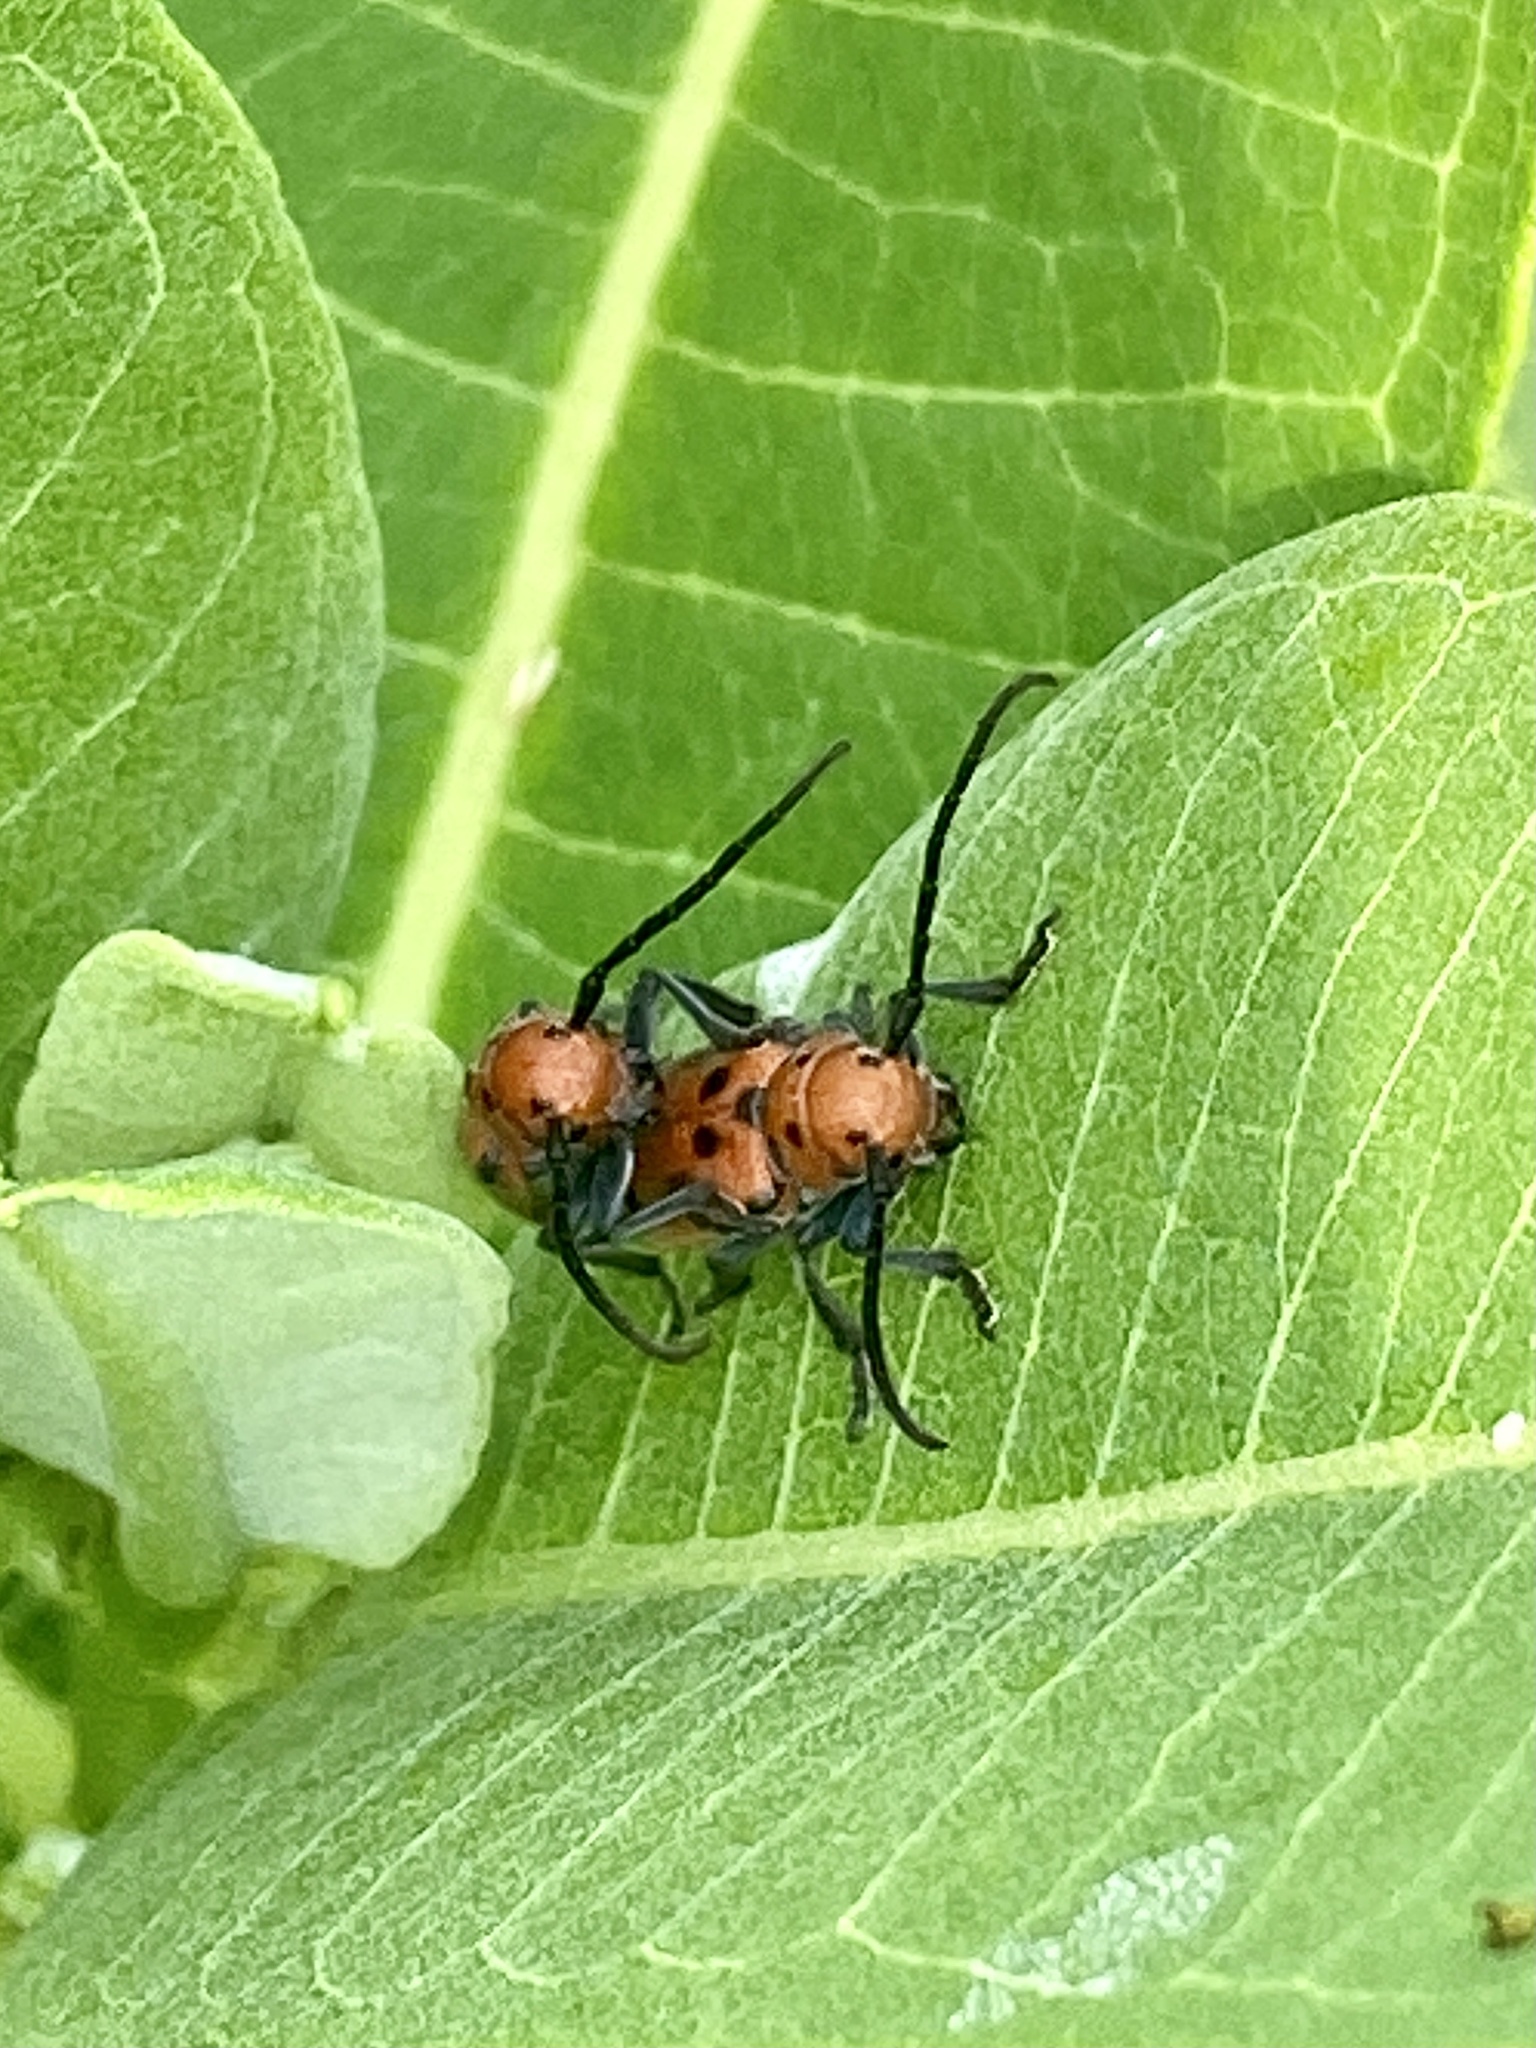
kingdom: Animalia
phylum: Arthropoda
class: Insecta
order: Coleoptera
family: Cerambycidae
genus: Tetraopes
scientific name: Tetraopes tetrophthalmus
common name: Red milkweed beetle
